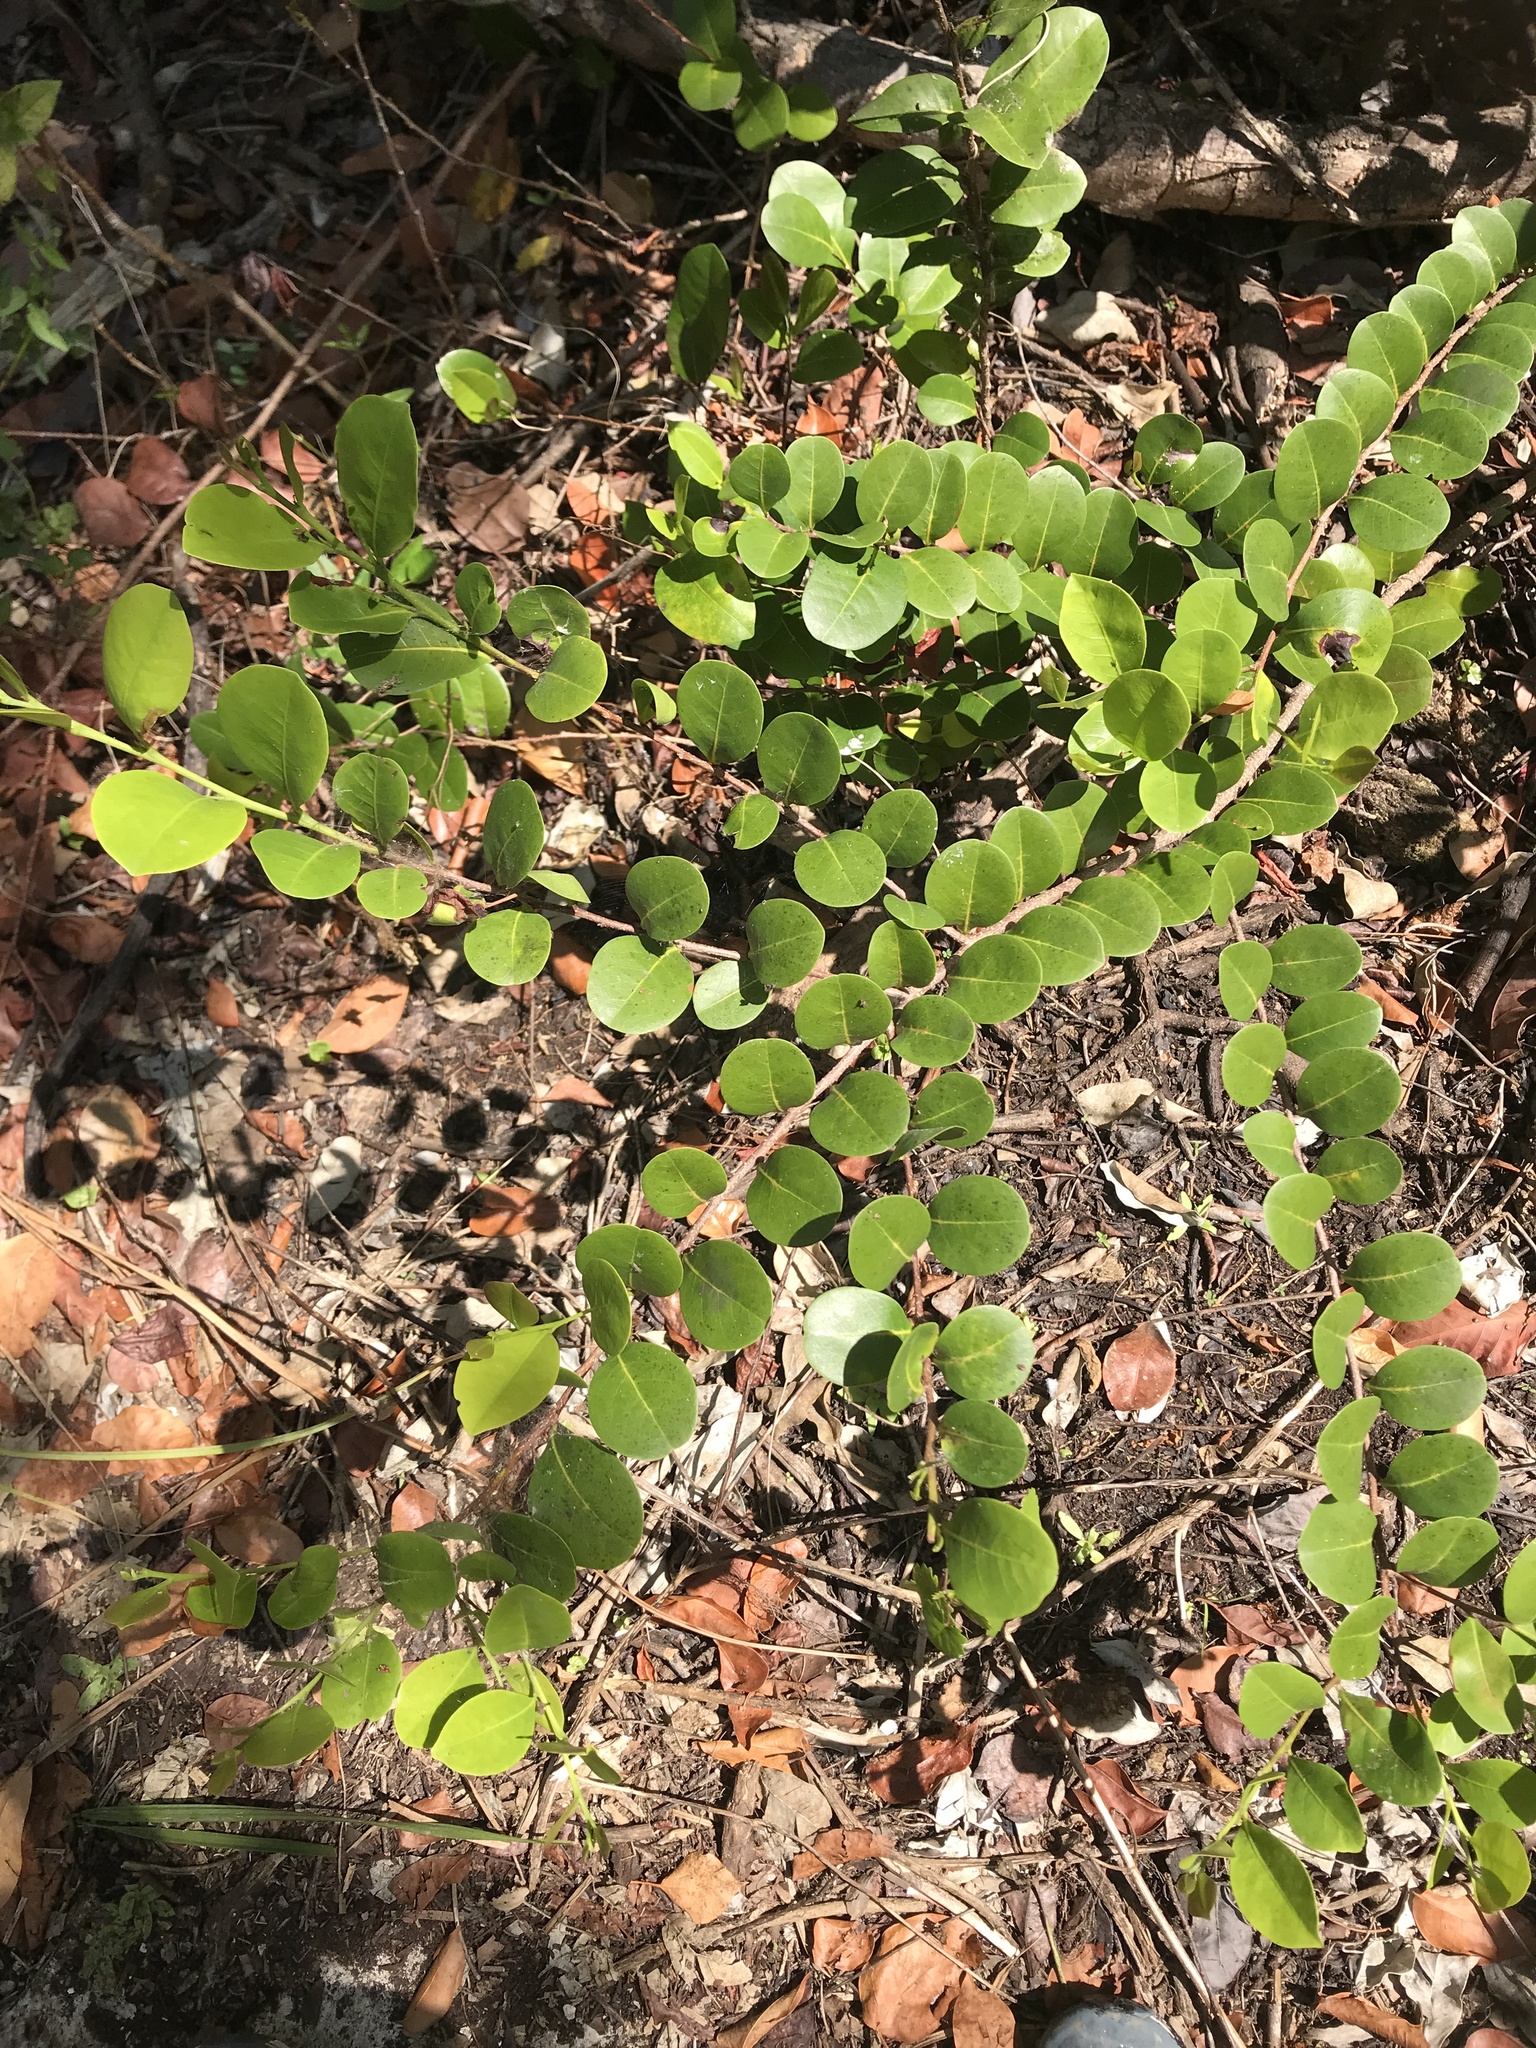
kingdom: Plantae
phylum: Tracheophyta
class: Magnoliopsida
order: Malpighiales
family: Chrysobalanaceae
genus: Chrysobalanus
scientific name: Chrysobalanus icaco
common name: Coco plum
